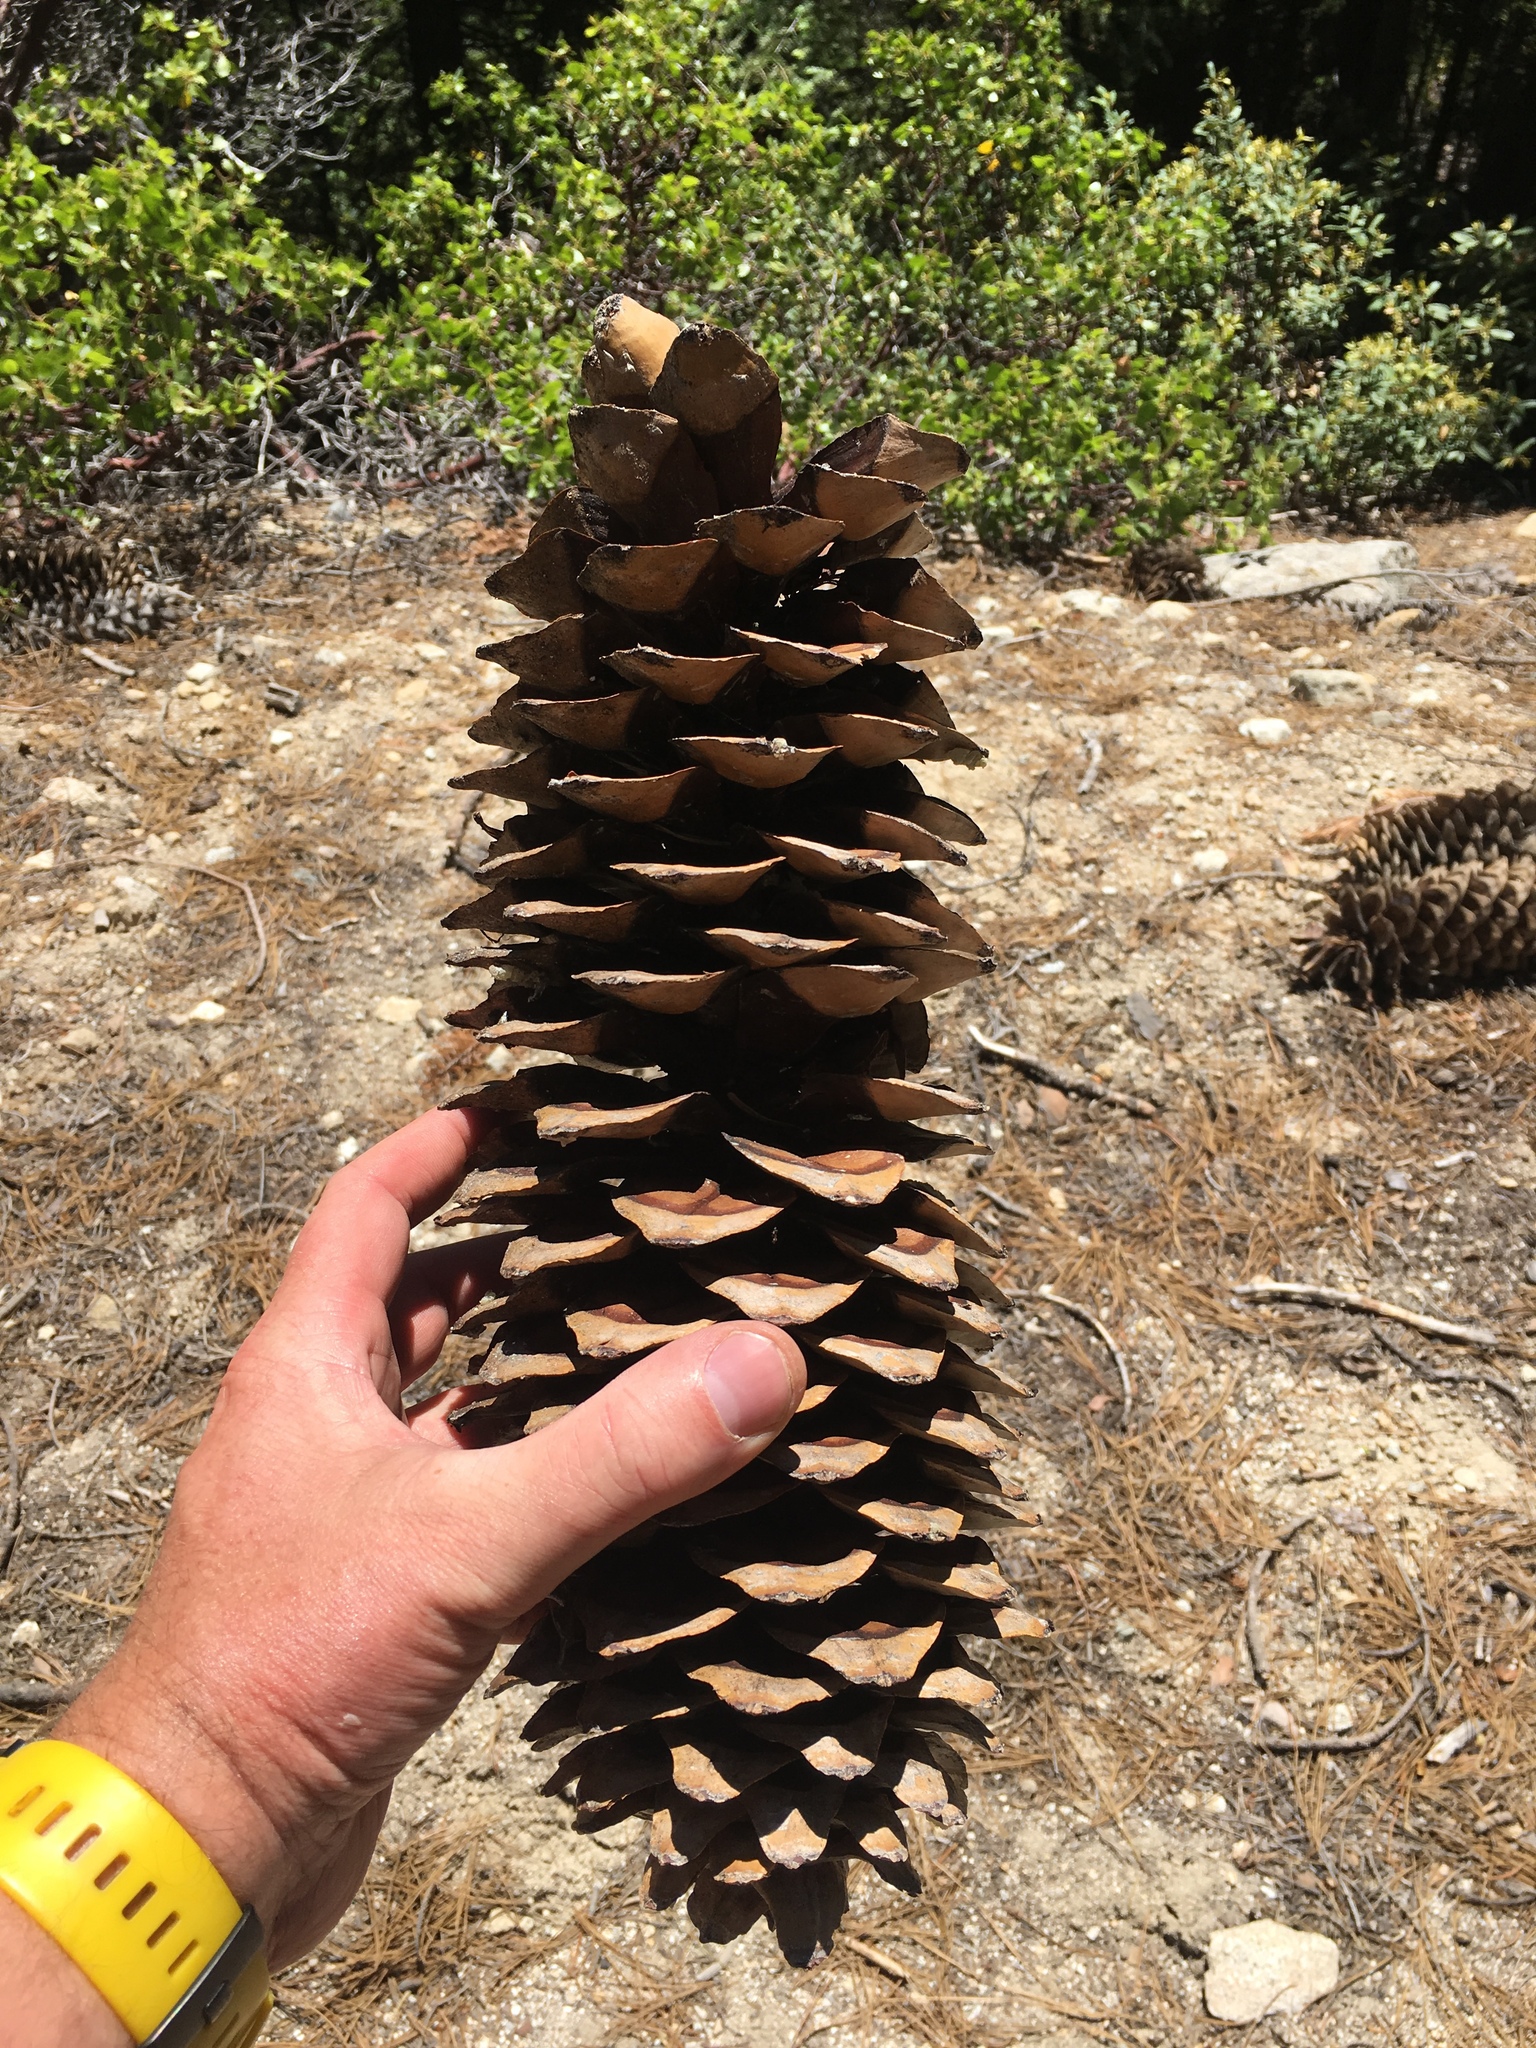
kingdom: Plantae
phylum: Tracheophyta
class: Pinopsida
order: Pinales
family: Pinaceae
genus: Pinus
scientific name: Pinus lambertiana
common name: Sugar pine
